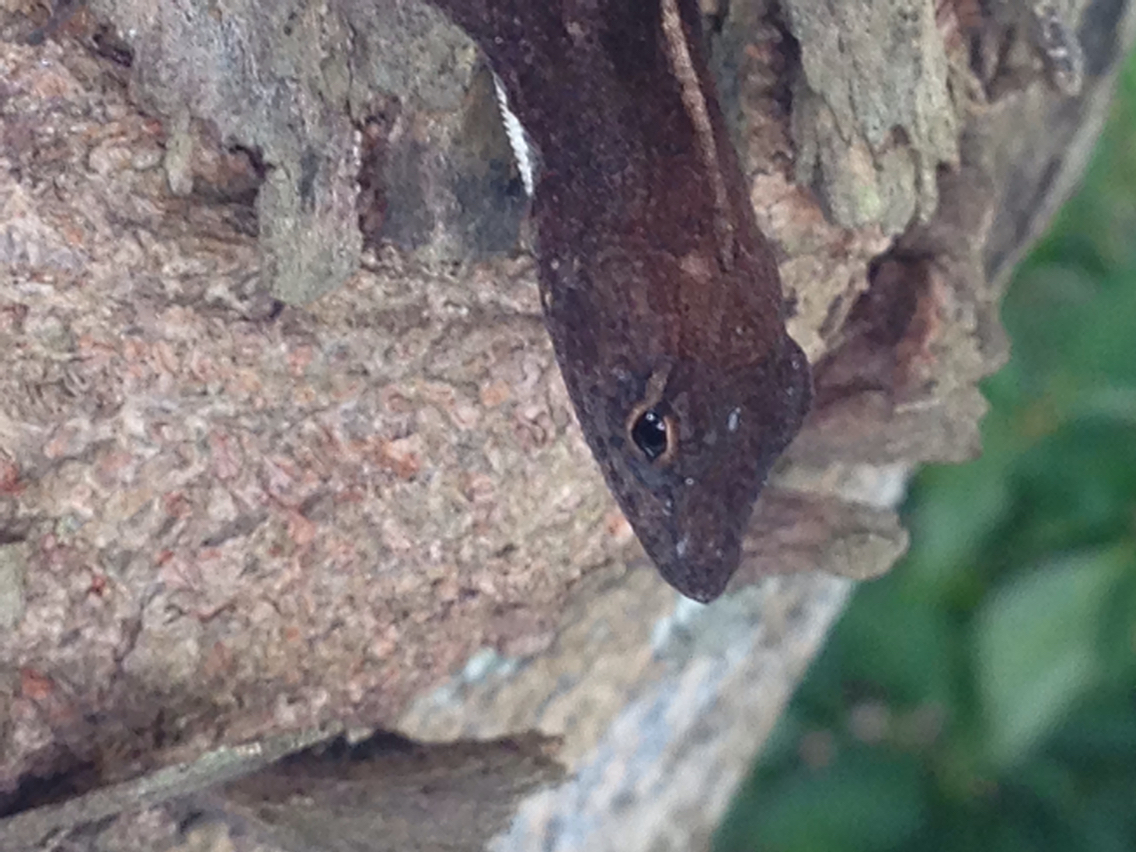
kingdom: Animalia
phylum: Chordata
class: Squamata
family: Dactyloidae
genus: Anolis
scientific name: Anolis homolechis
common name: Habana anole
